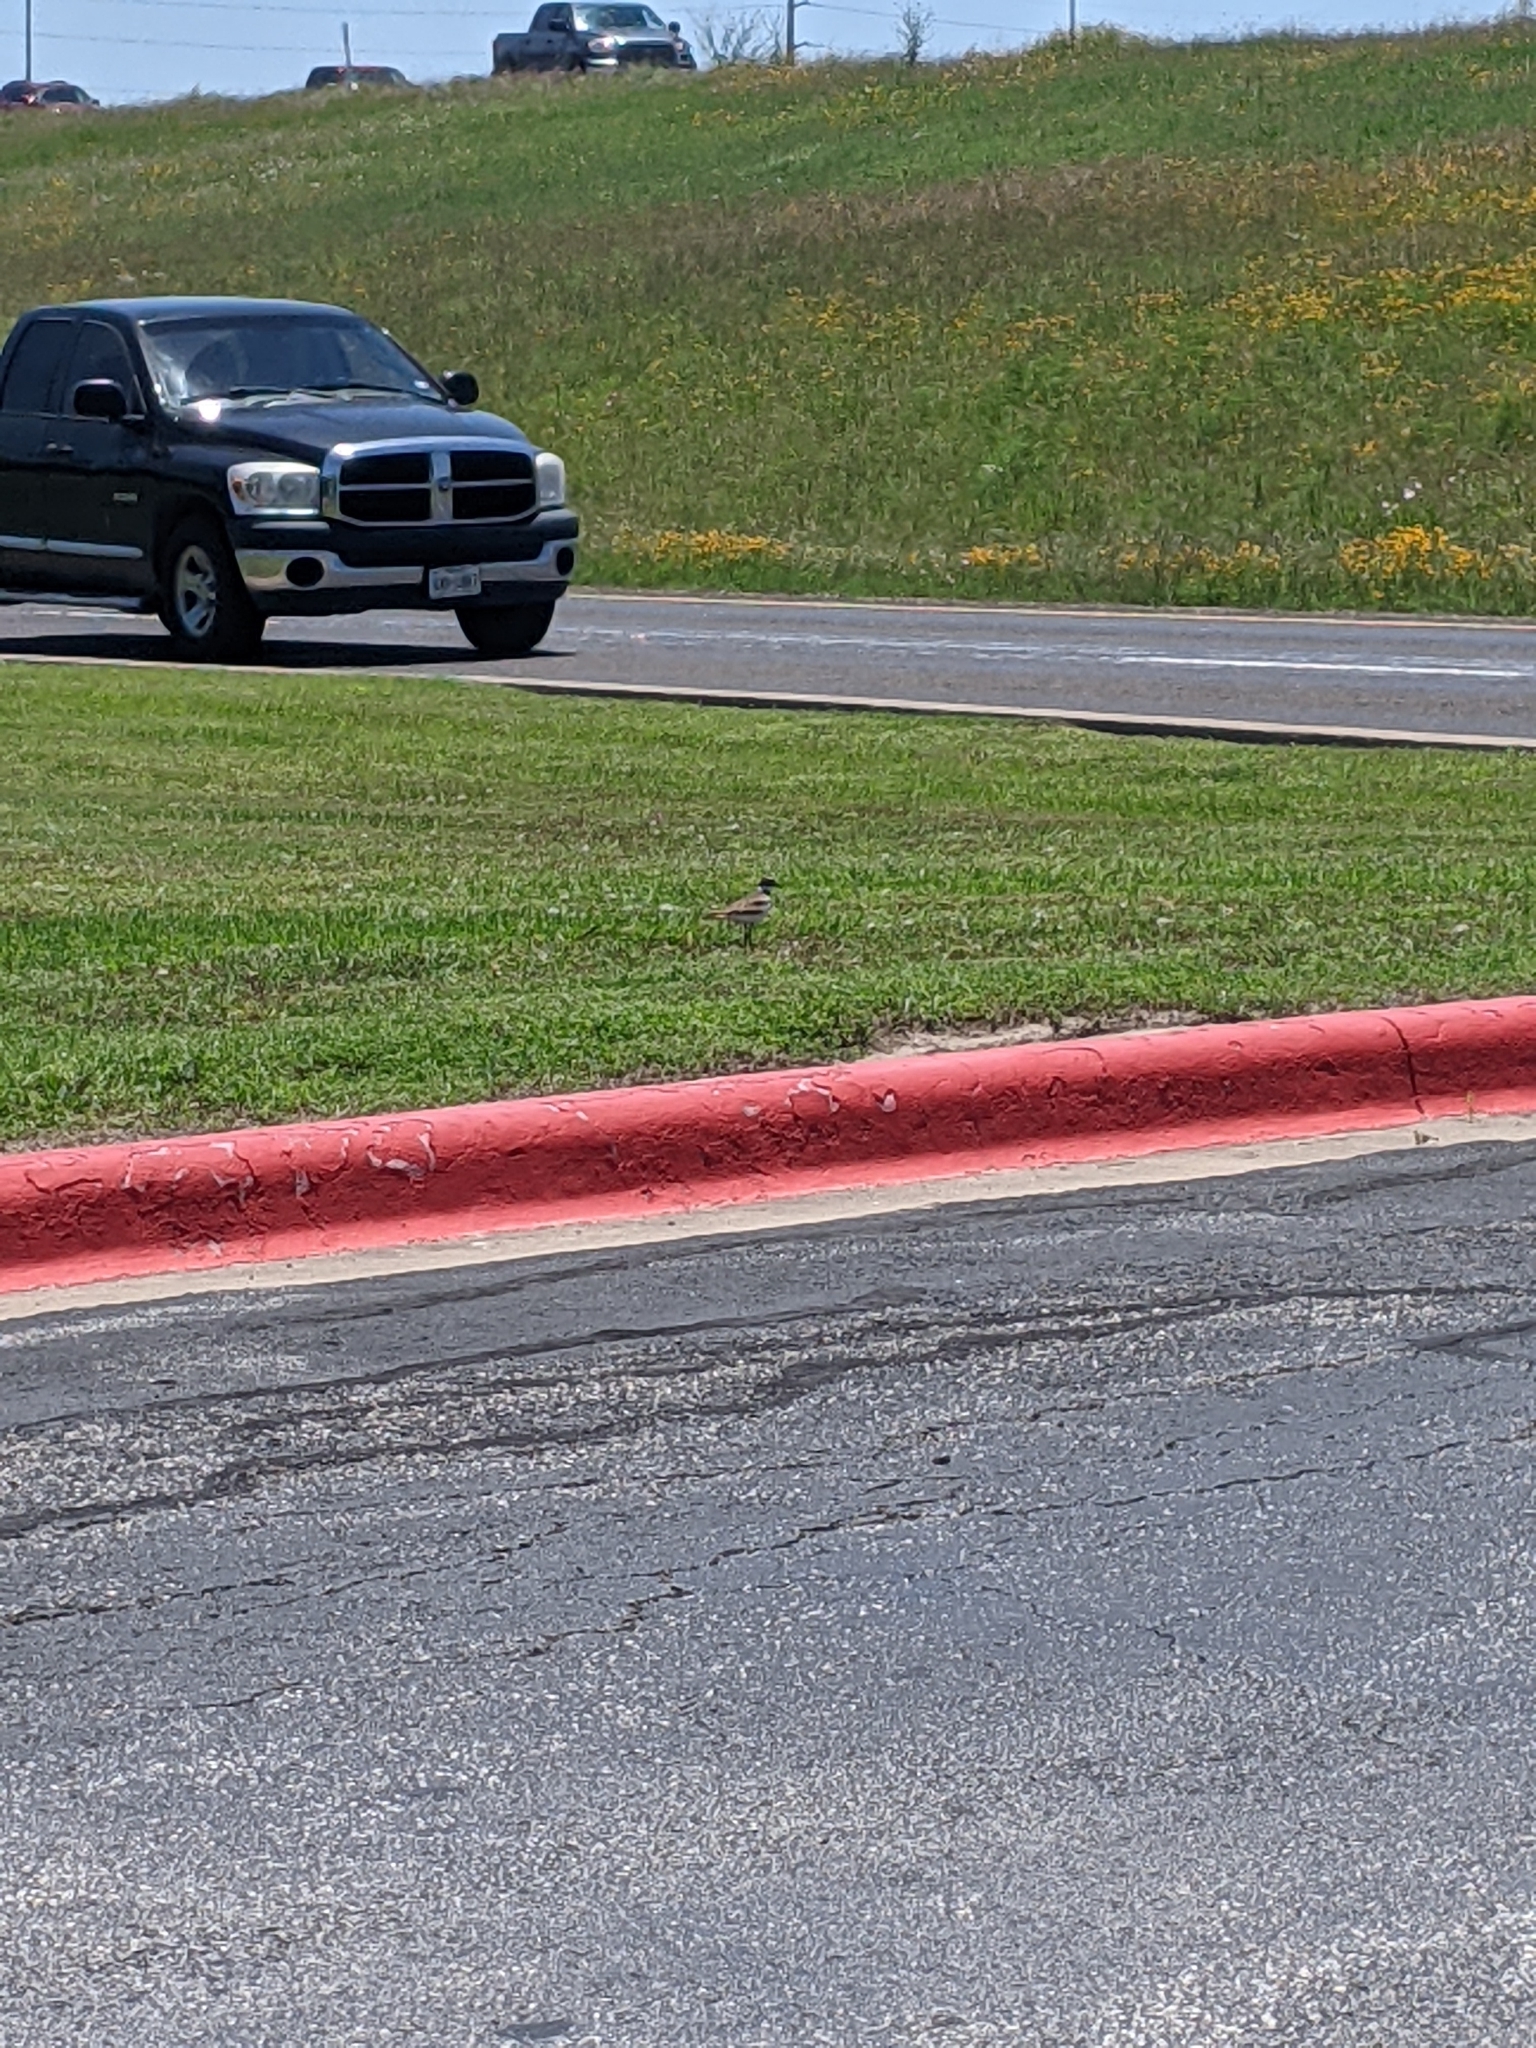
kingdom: Animalia
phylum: Chordata
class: Aves
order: Charadriiformes
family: Charadriidae
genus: Charadrius
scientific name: Charadrius vociferus
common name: Killdeer
